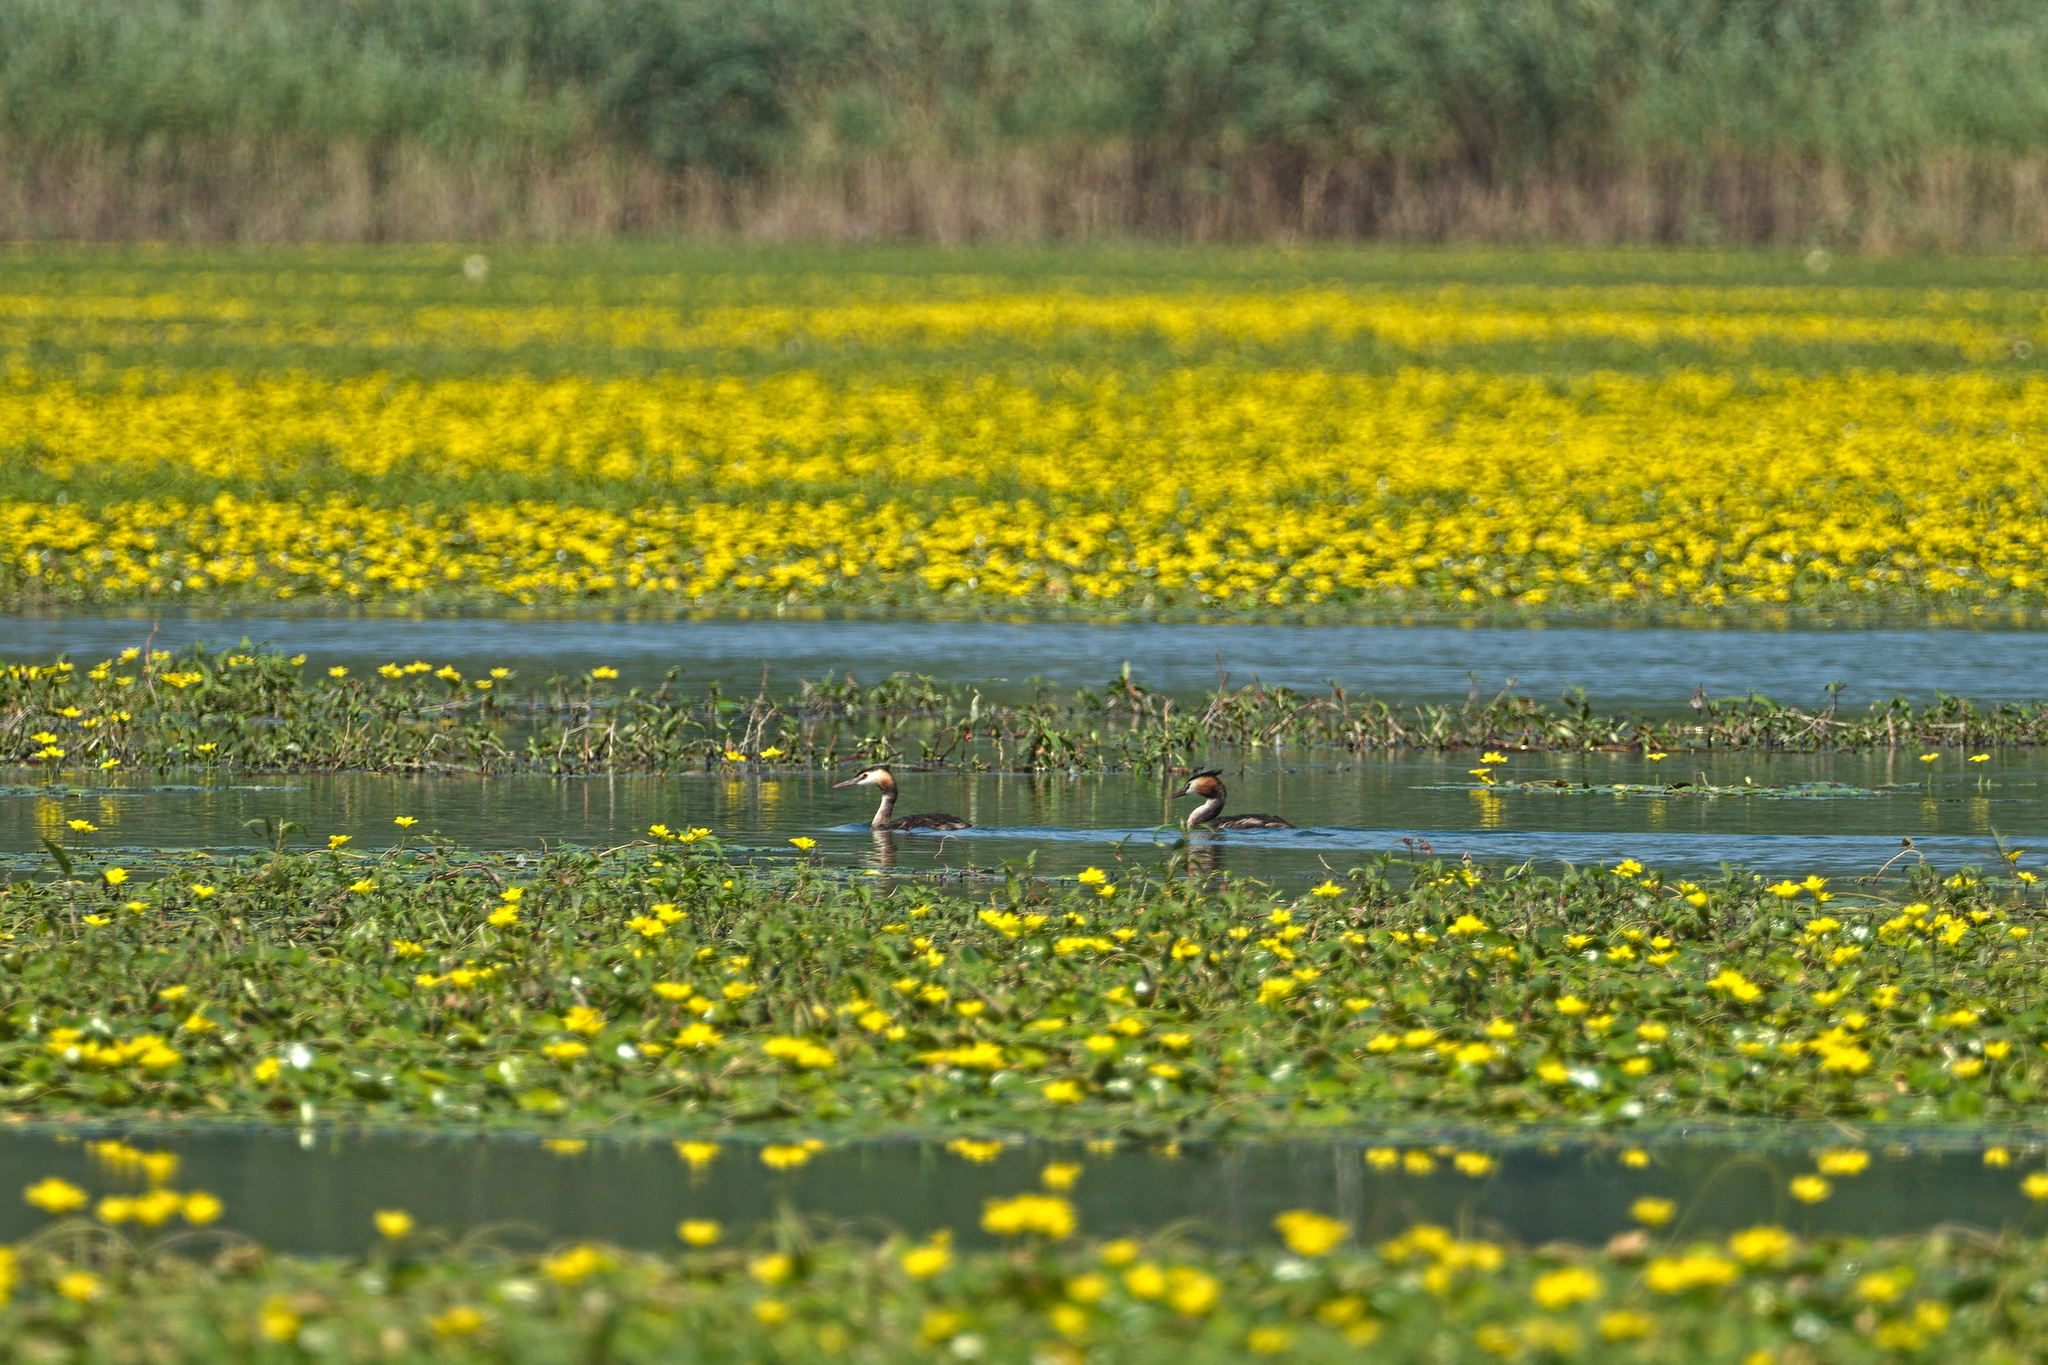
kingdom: Animalia
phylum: Chordata
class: Aves
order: Podicipediformes
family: Podicipedidae
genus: Podiceps
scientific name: Podiceps cristatus
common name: Great crested grebe
